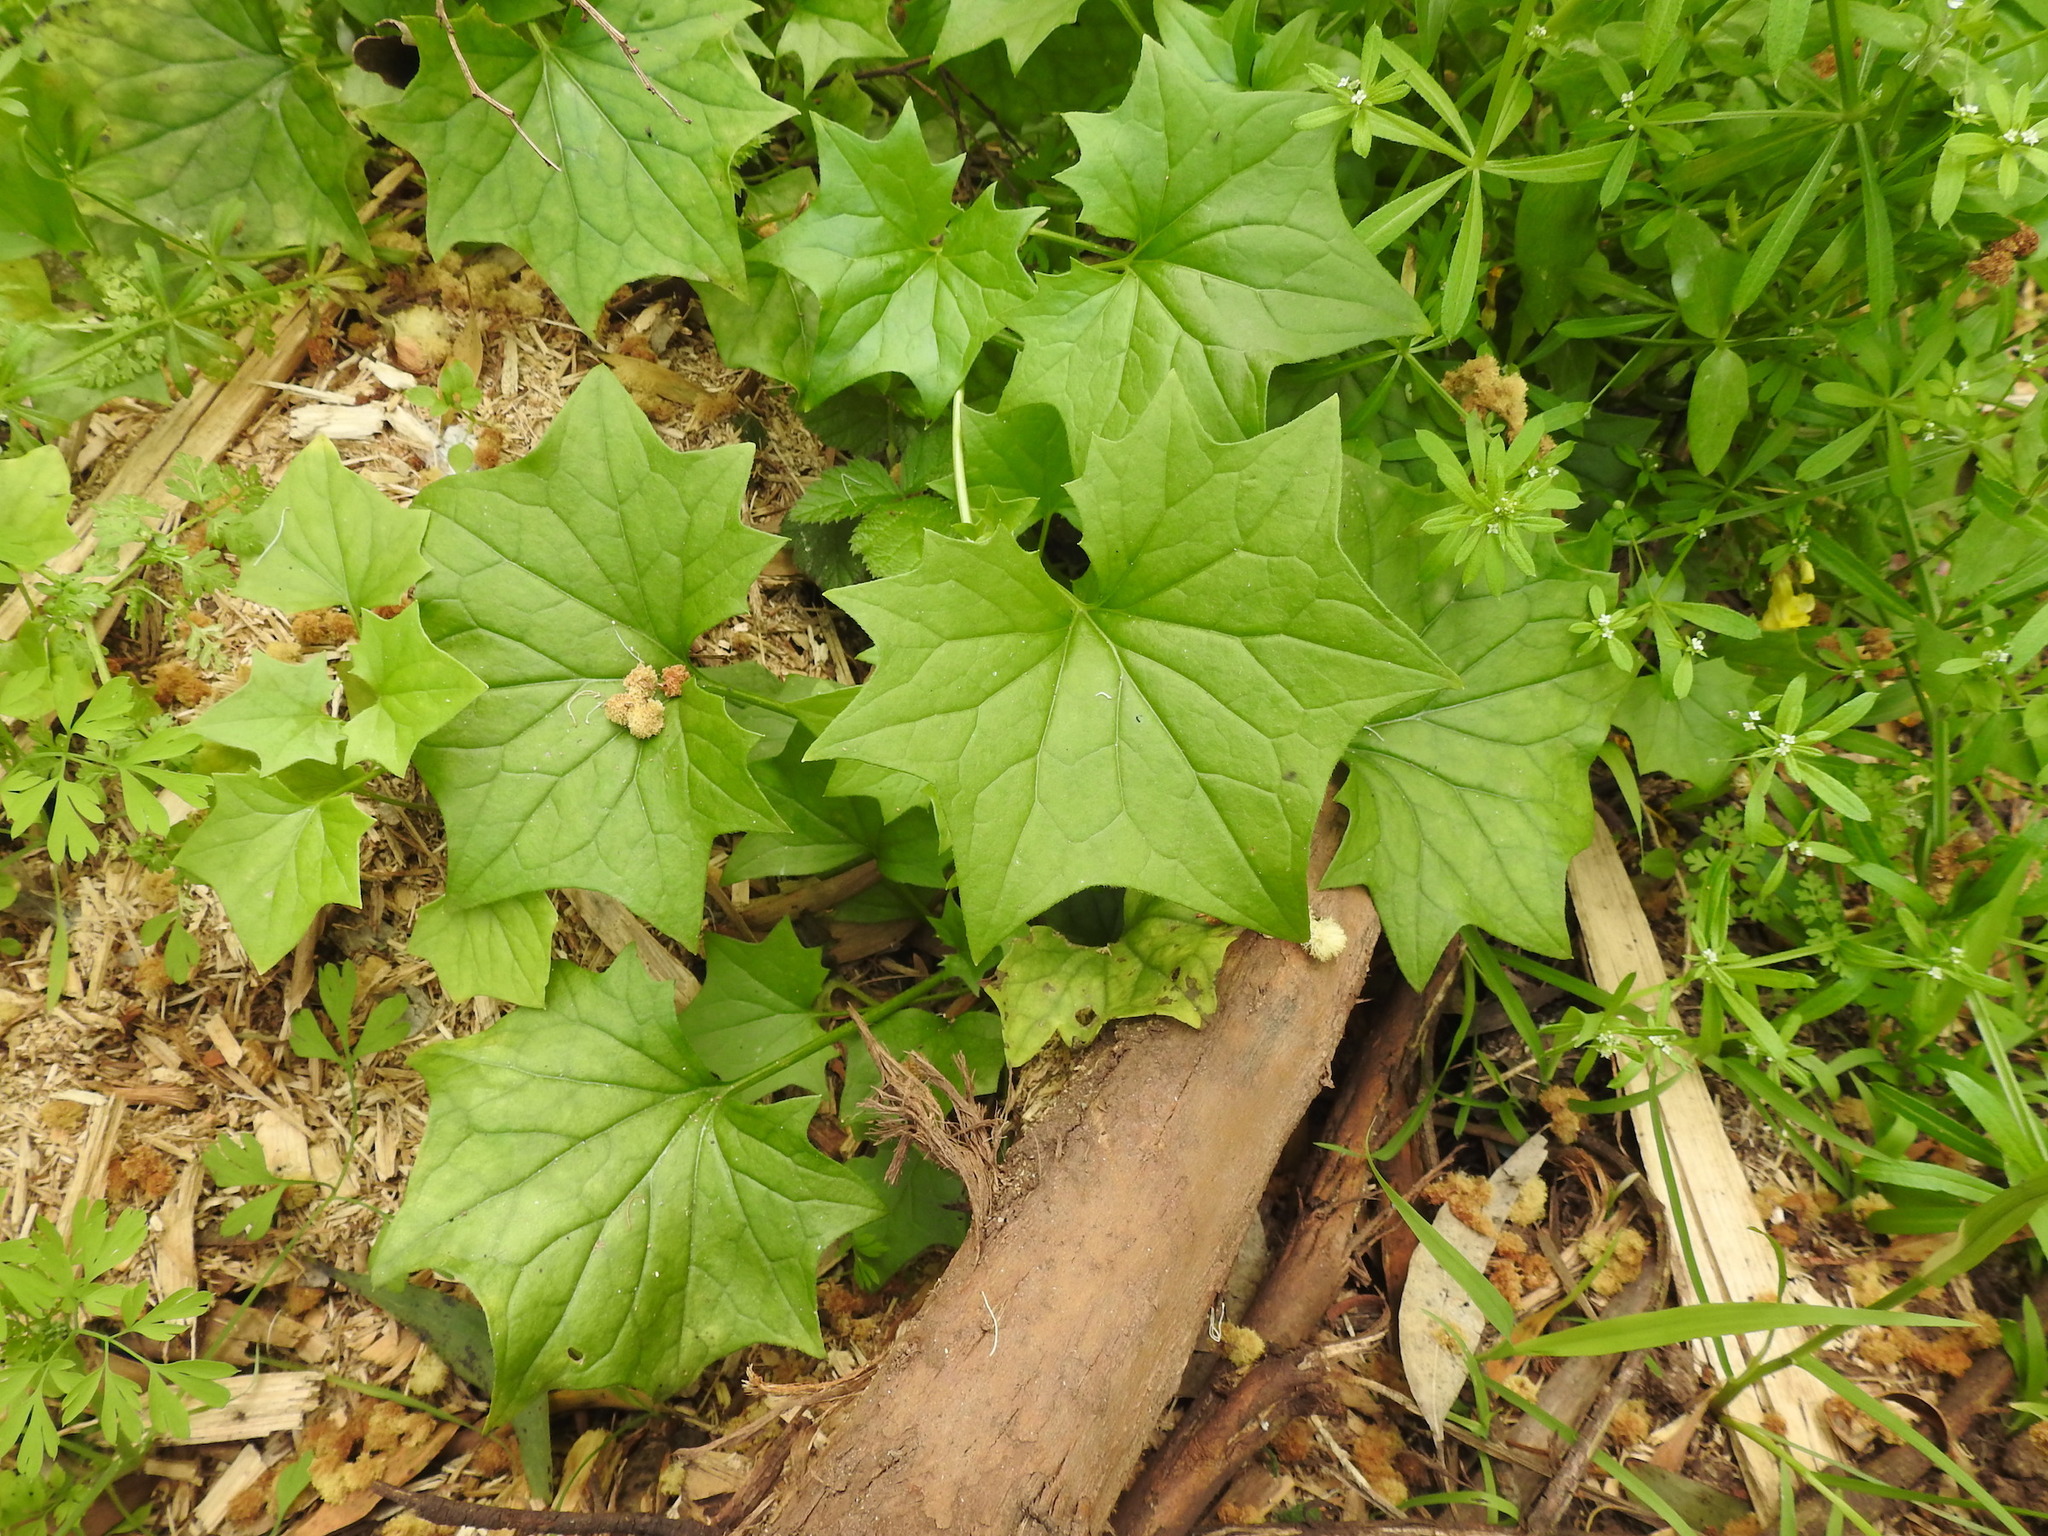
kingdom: Plantae
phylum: Tracheophyta
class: Magnoliopsida
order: Asterales
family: Asteraceae
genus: Delairea
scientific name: Delairea odorata
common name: Cape-ivy
